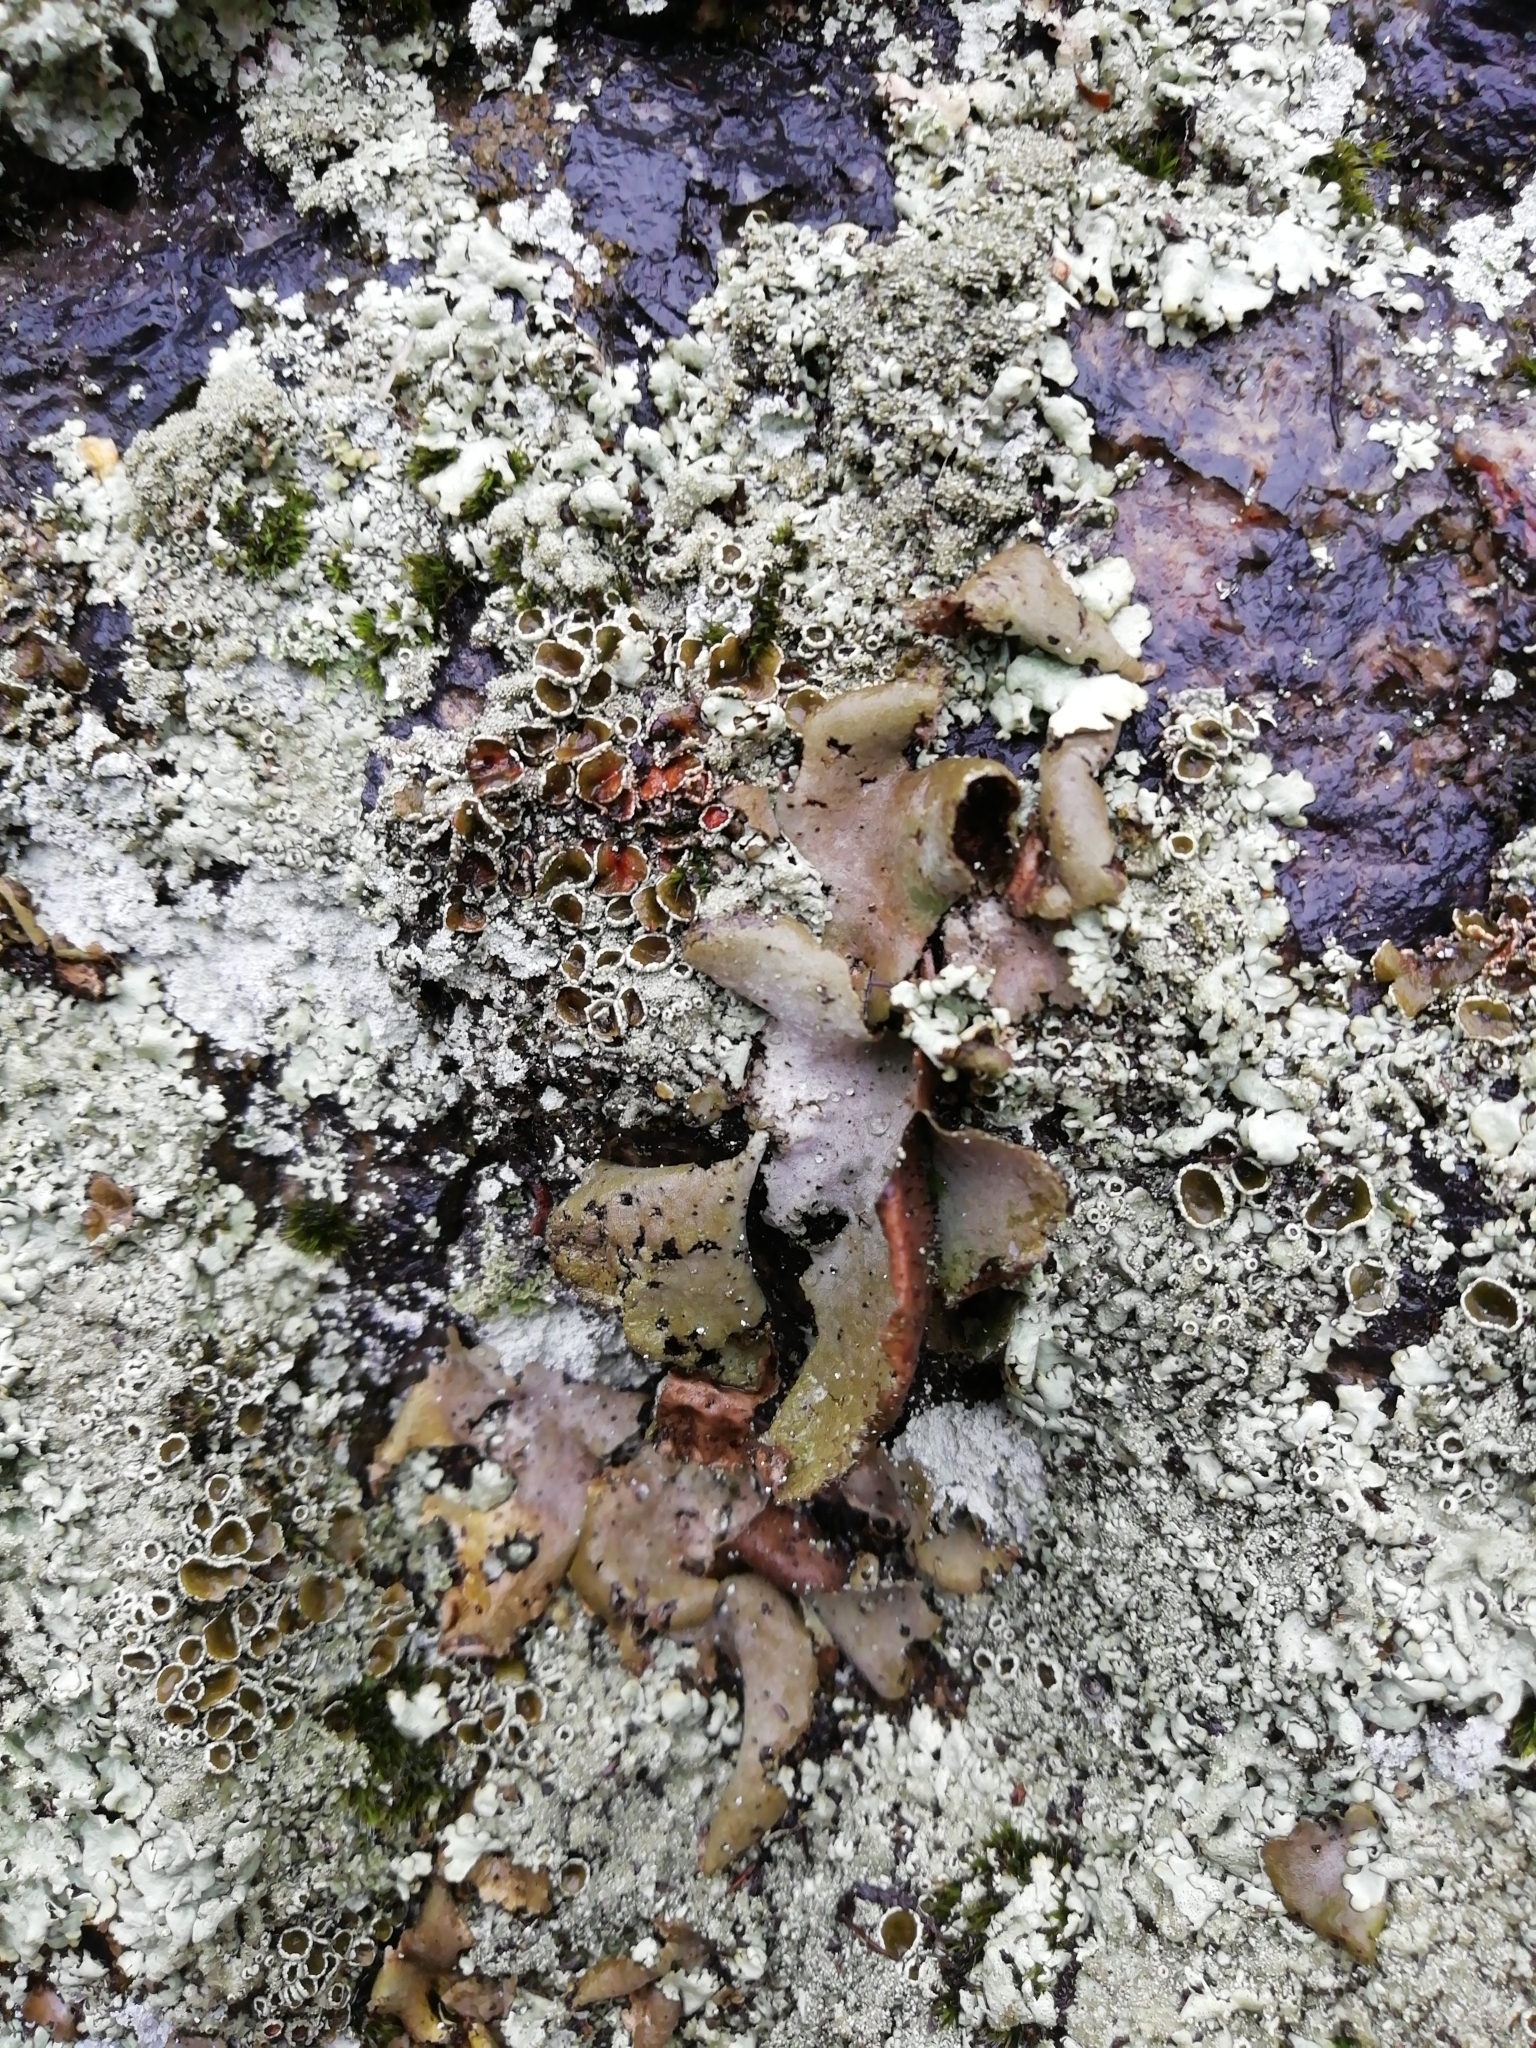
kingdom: Fungi
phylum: Ascomycota
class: Lecanoromycetes
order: Umbilicariales
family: Umbilicariaceae
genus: Umbilicaria
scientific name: Umbilicaria hirsuta
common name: Granulating rocktripe lichen
